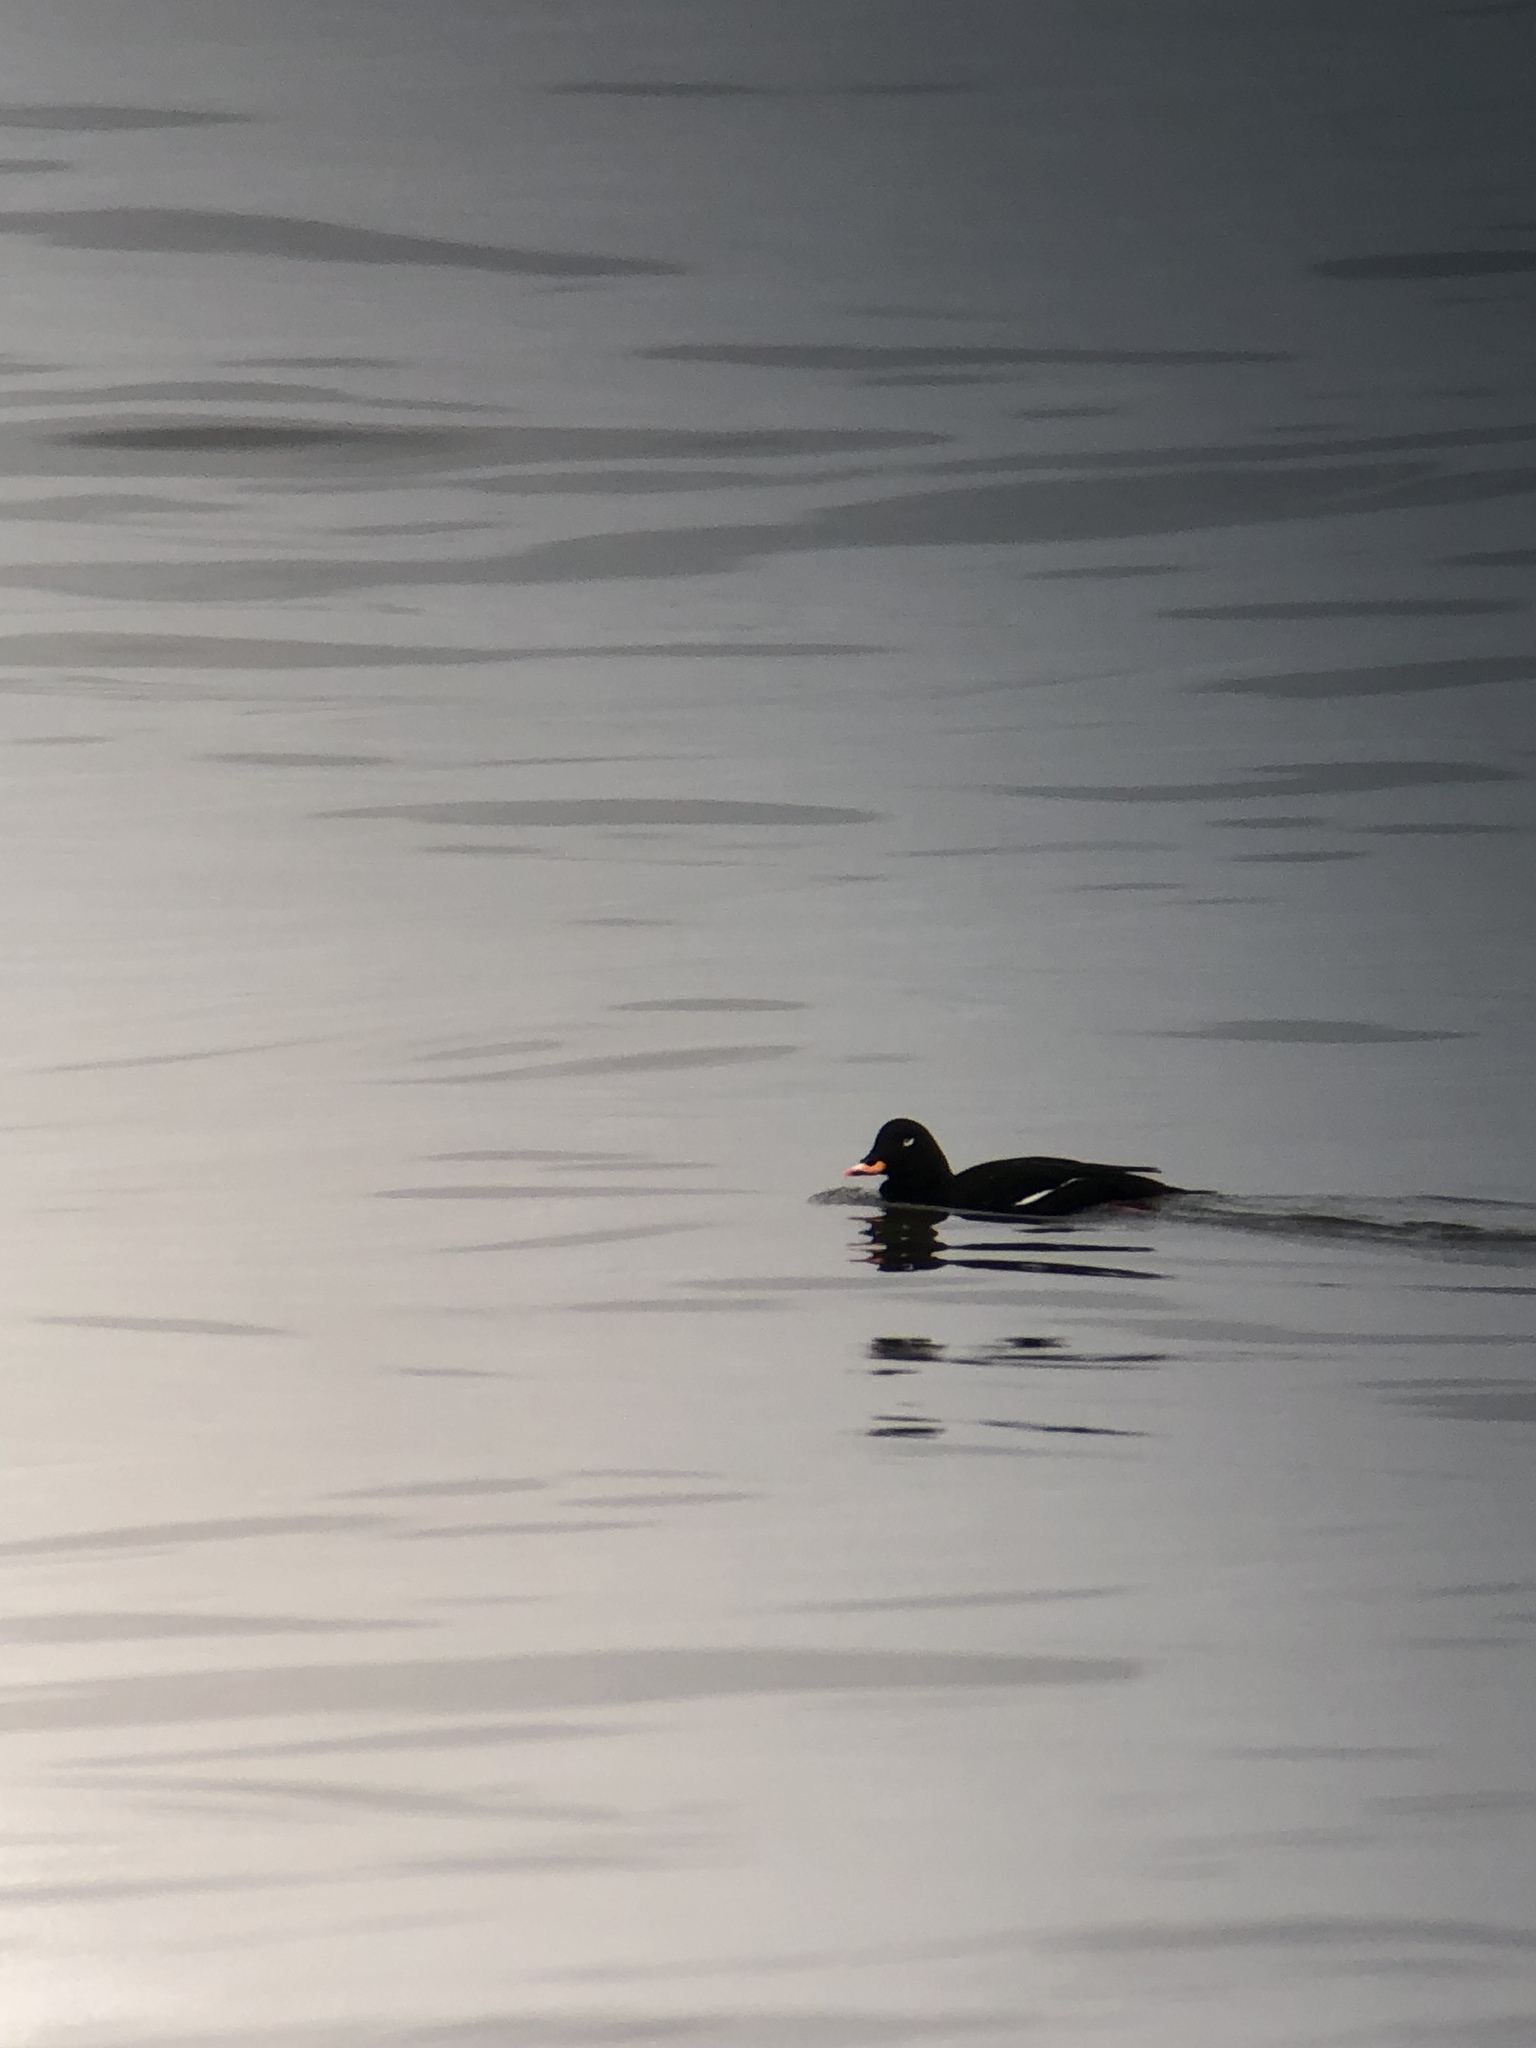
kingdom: Animalia
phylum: Chordata
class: Aves
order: Anseriformes
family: Anatidae
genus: Melanitta
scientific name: Melanitta fusca
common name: Velvet scoter
